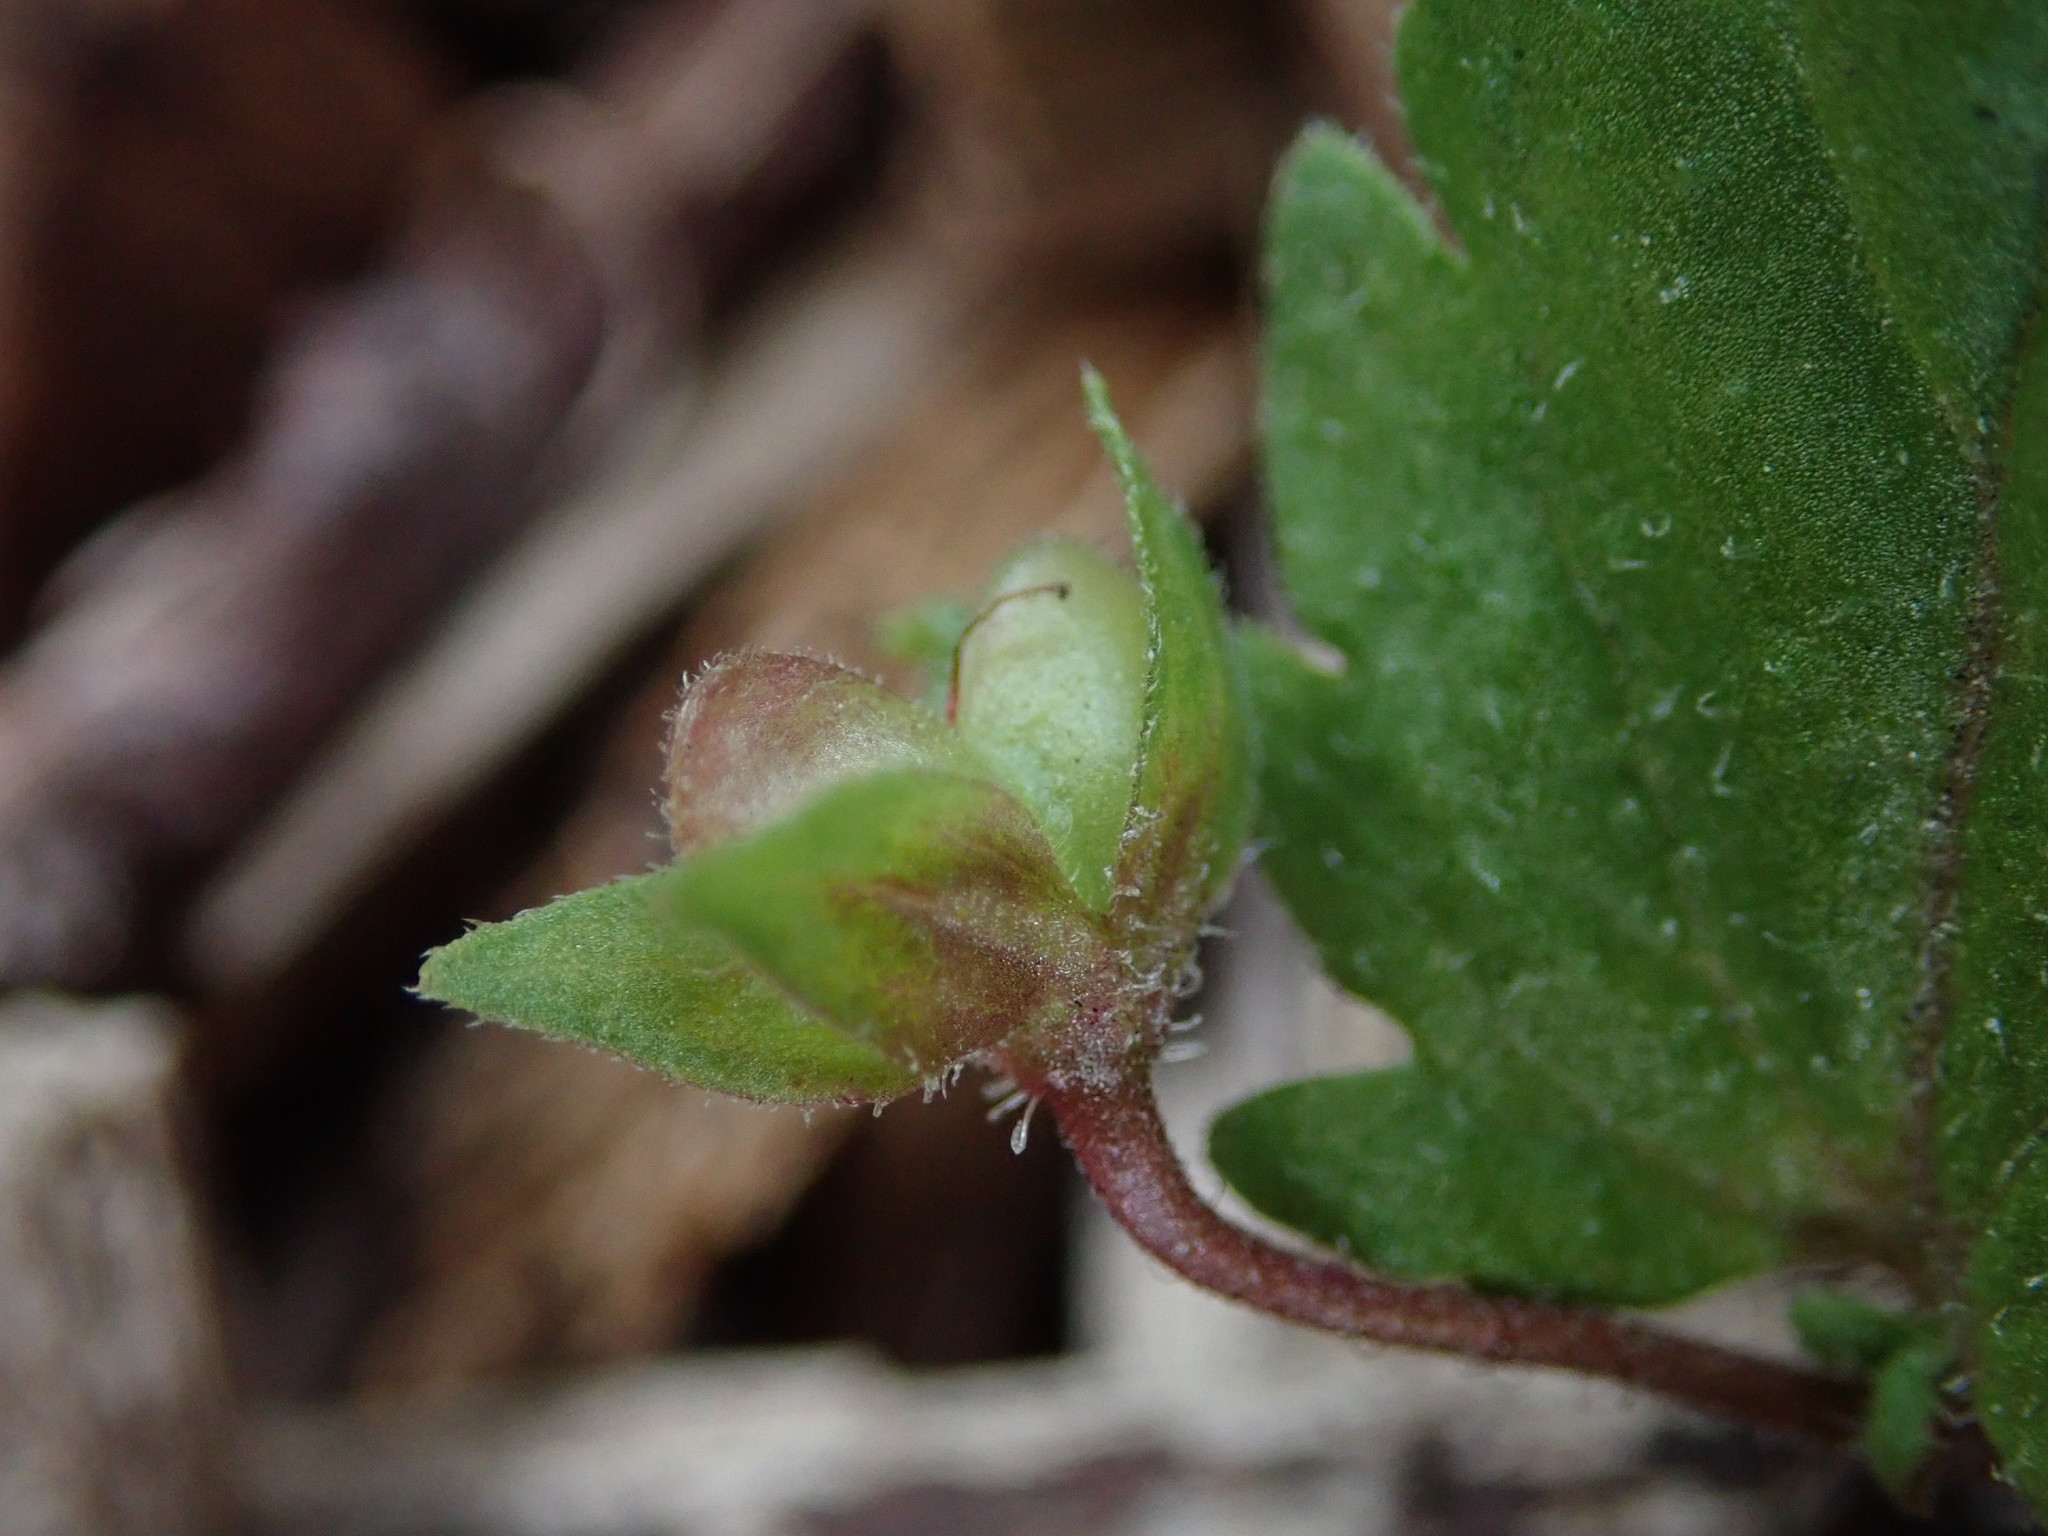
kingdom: Plantae
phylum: Tracheophyta
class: Magnoliopsida
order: Lamiales
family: Plantaginaceae
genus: Veronica
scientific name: Veronica persica
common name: Common field-speedwell
